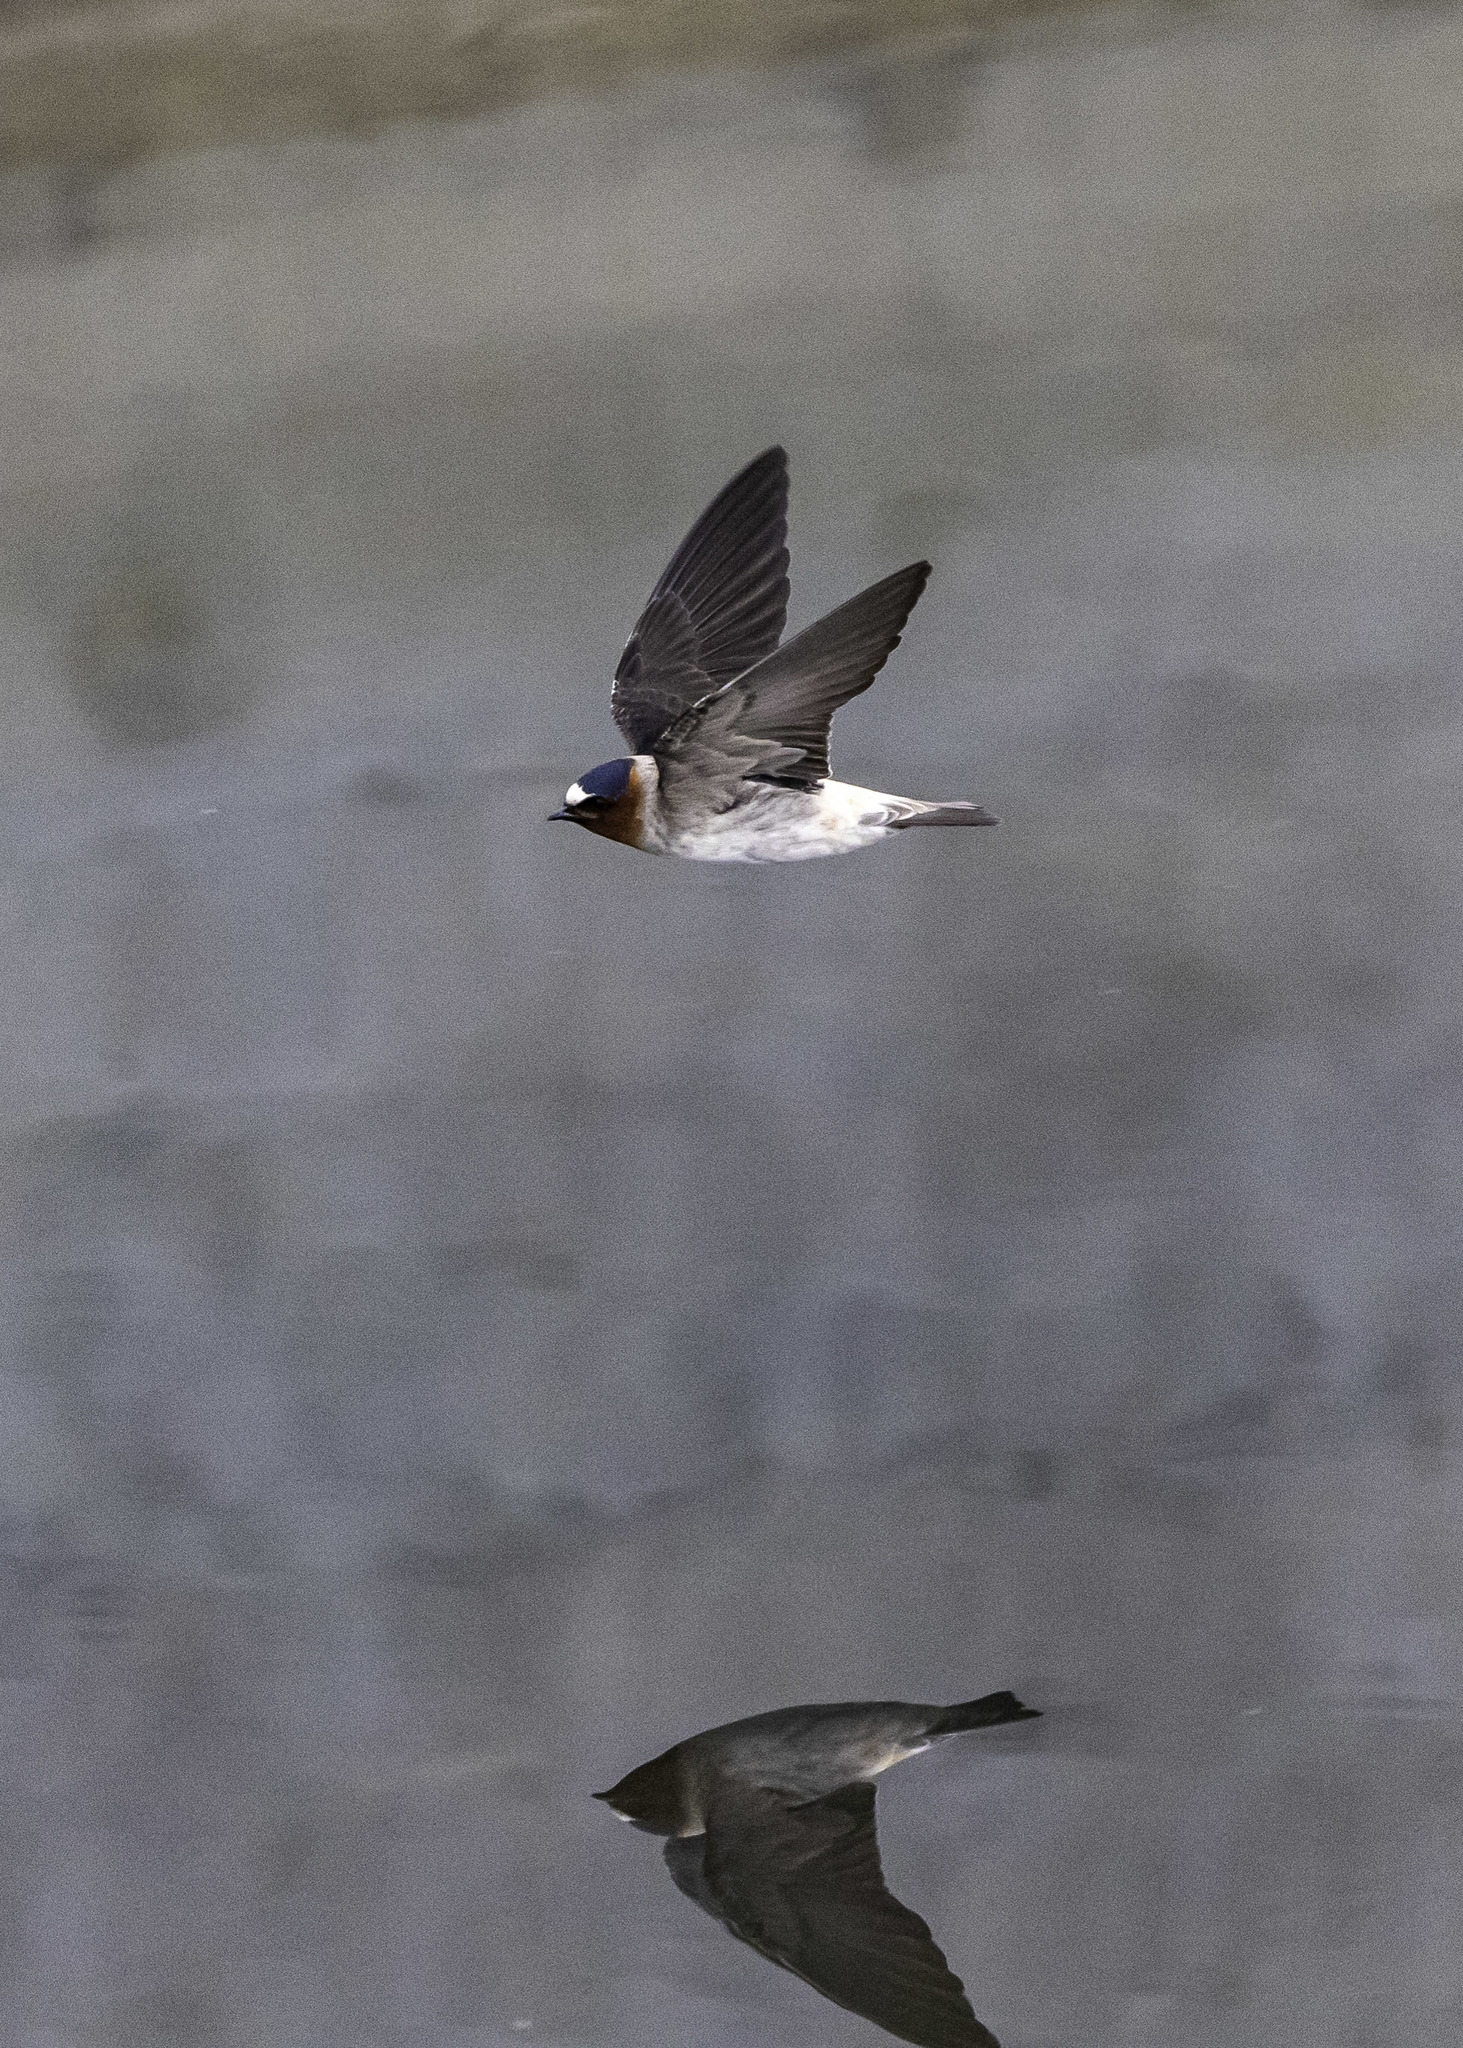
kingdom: Animalia
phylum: Chordata
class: Aves
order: Passeriformes
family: Hirundinidae
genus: Petrochelidon
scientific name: Petrochelidon pyrrhonota
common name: American cliff swallow
